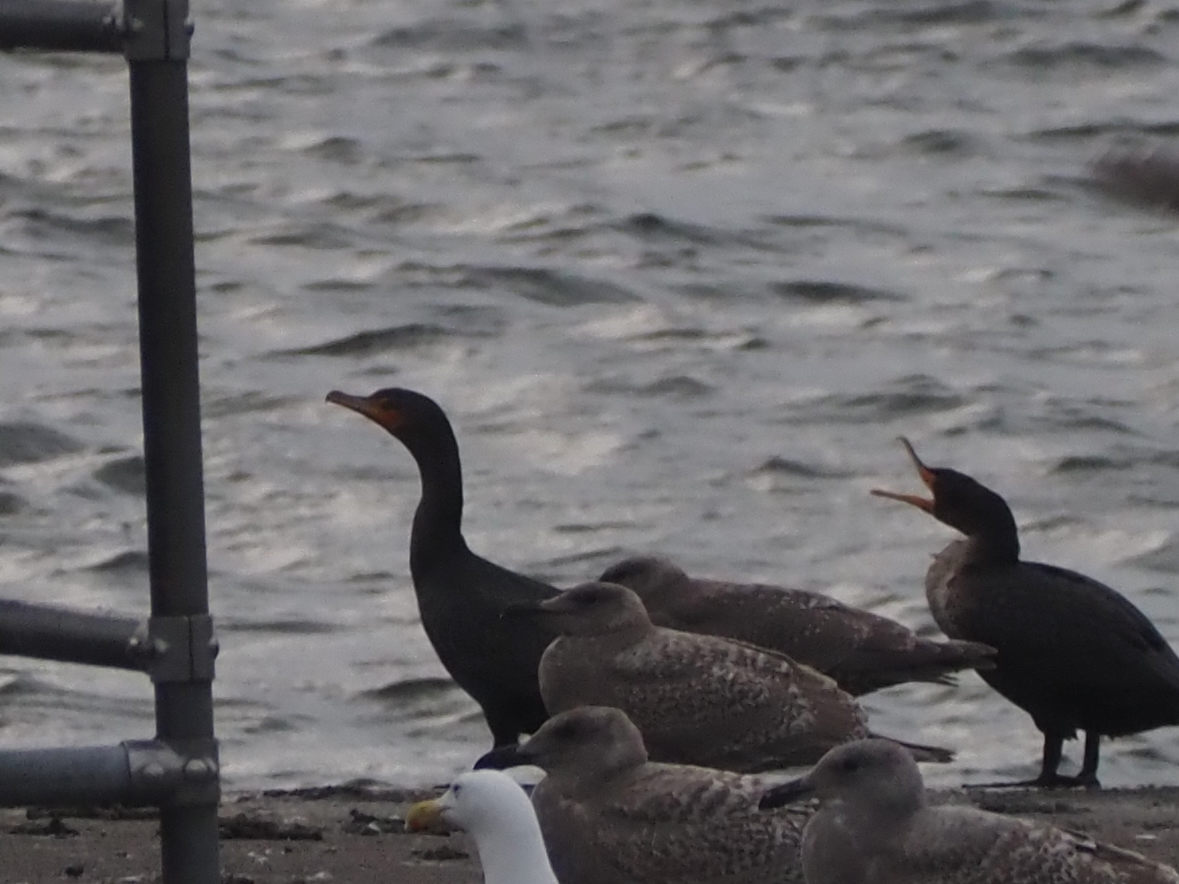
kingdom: Animalia
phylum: Chordata
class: Aves
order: Suliformes
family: Phalacrocoracidae
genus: Phalacrocorax
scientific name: Phalacrocorax auritus
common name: Double-crested cormorant
